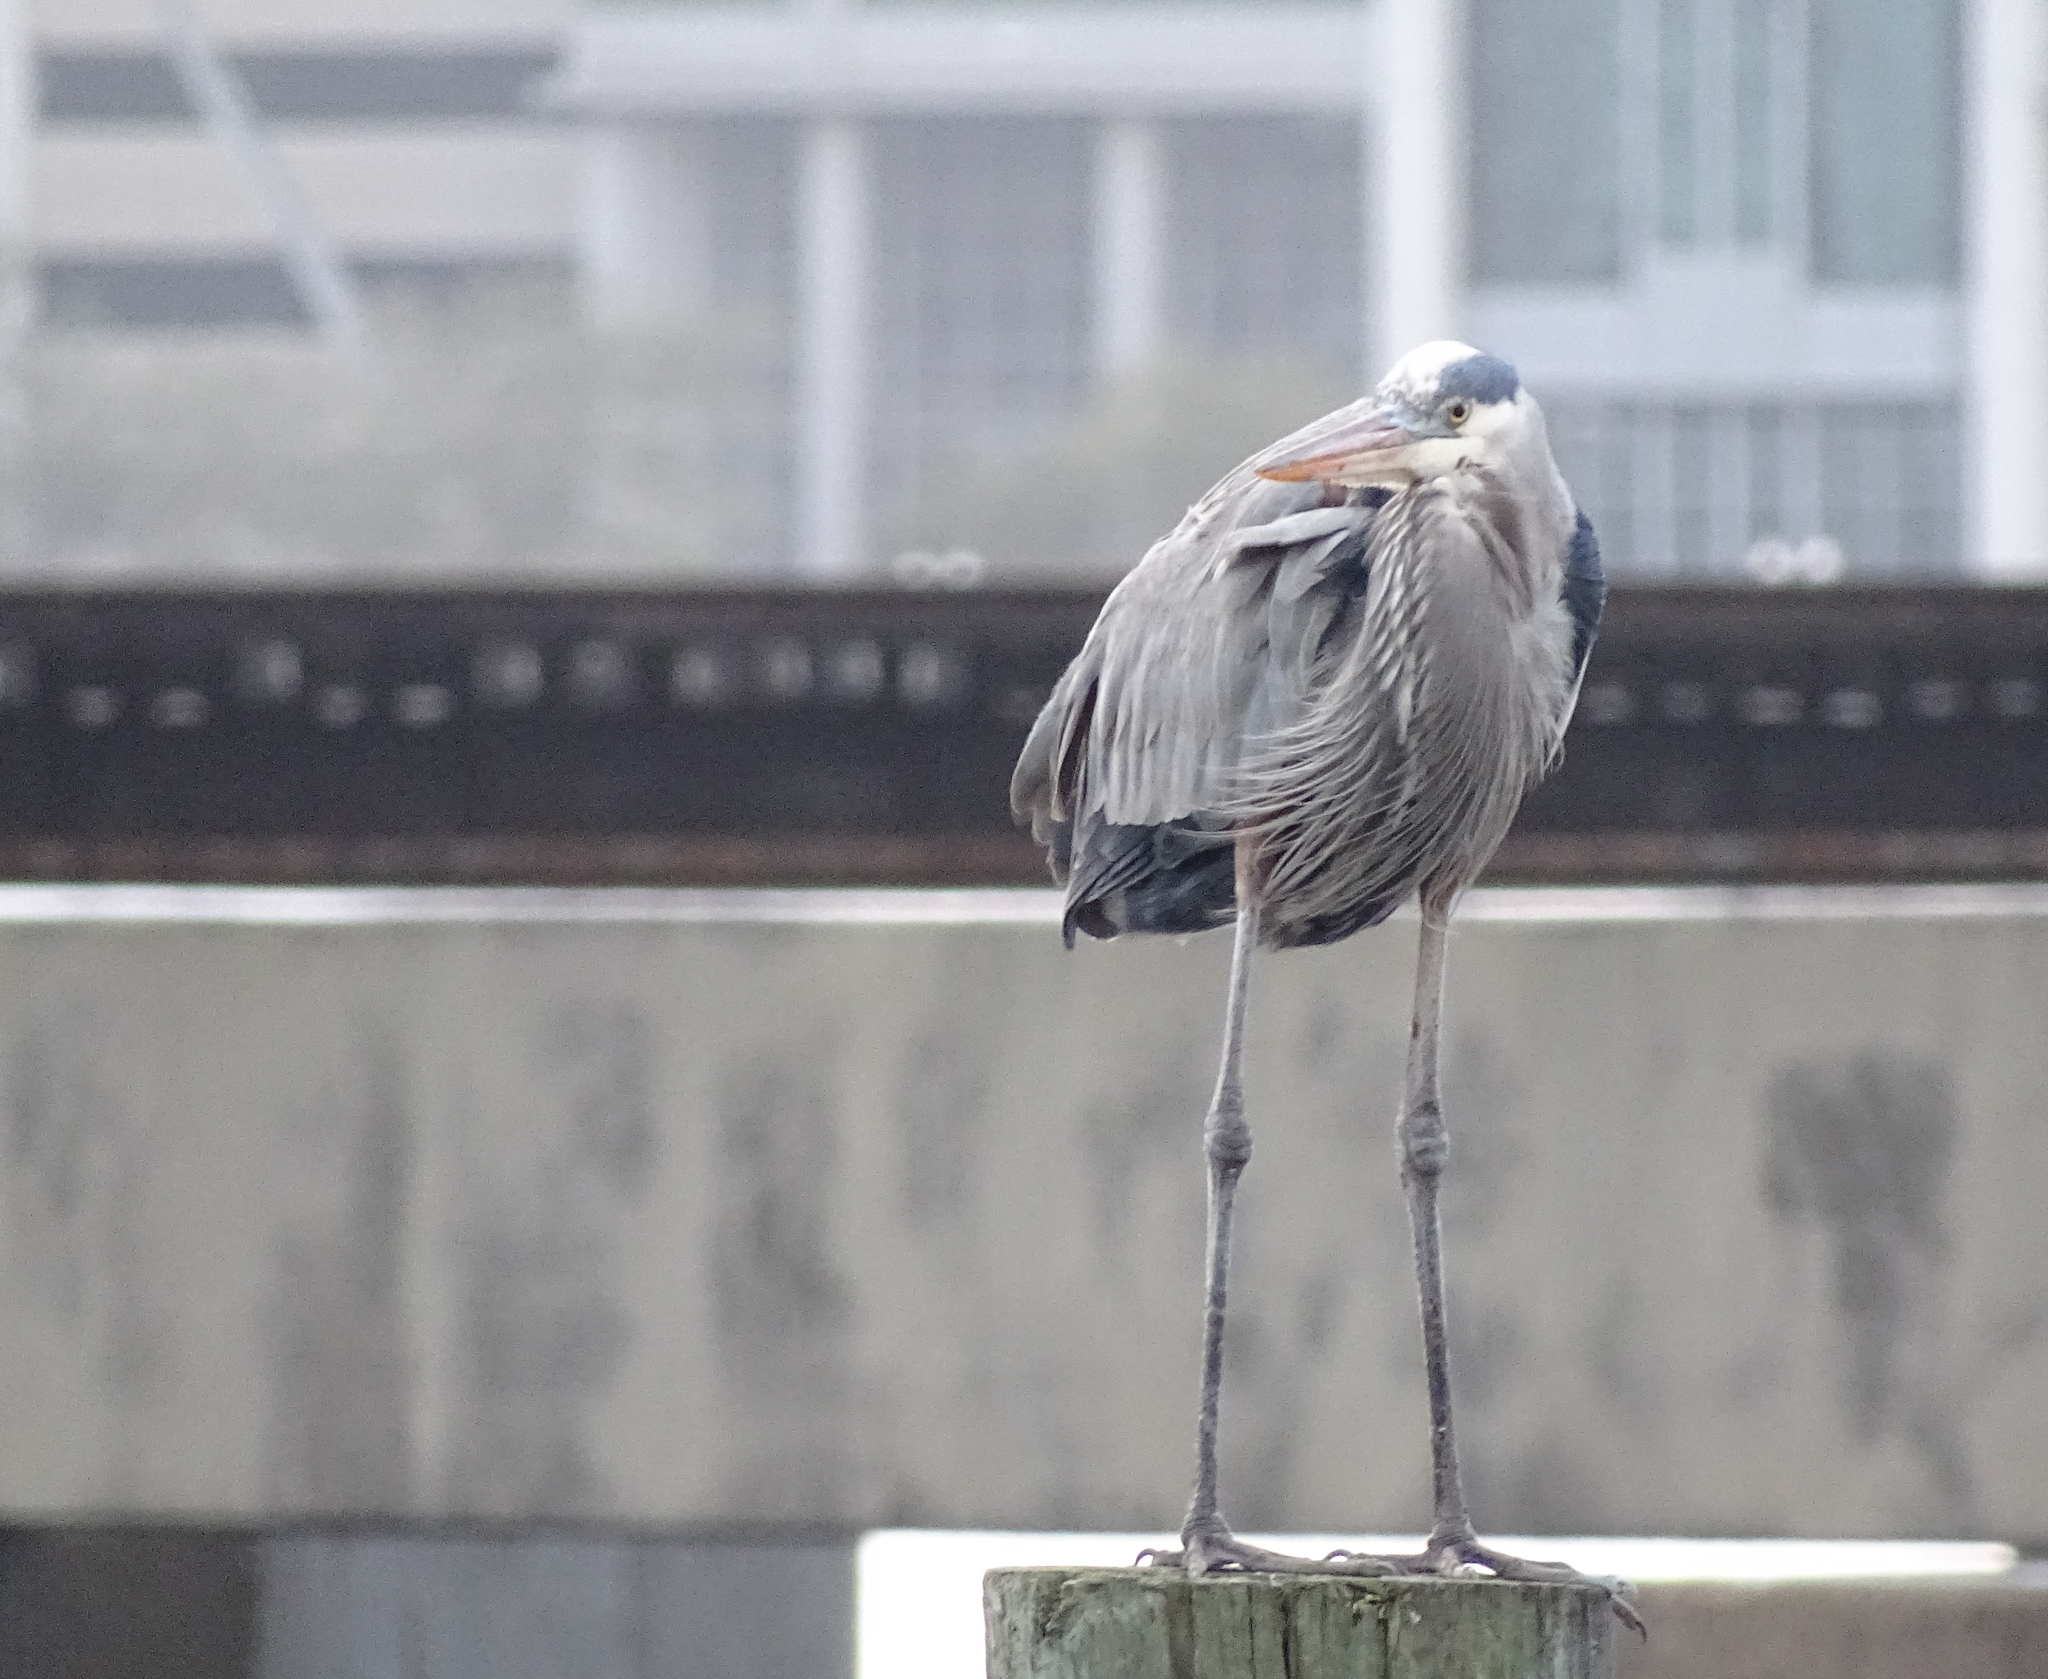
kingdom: Animalia
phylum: Chordata
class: Aves
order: Pelecaniformes
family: Ardeidae
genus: Ardea
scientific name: Ardea herodias
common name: Great blue heron
